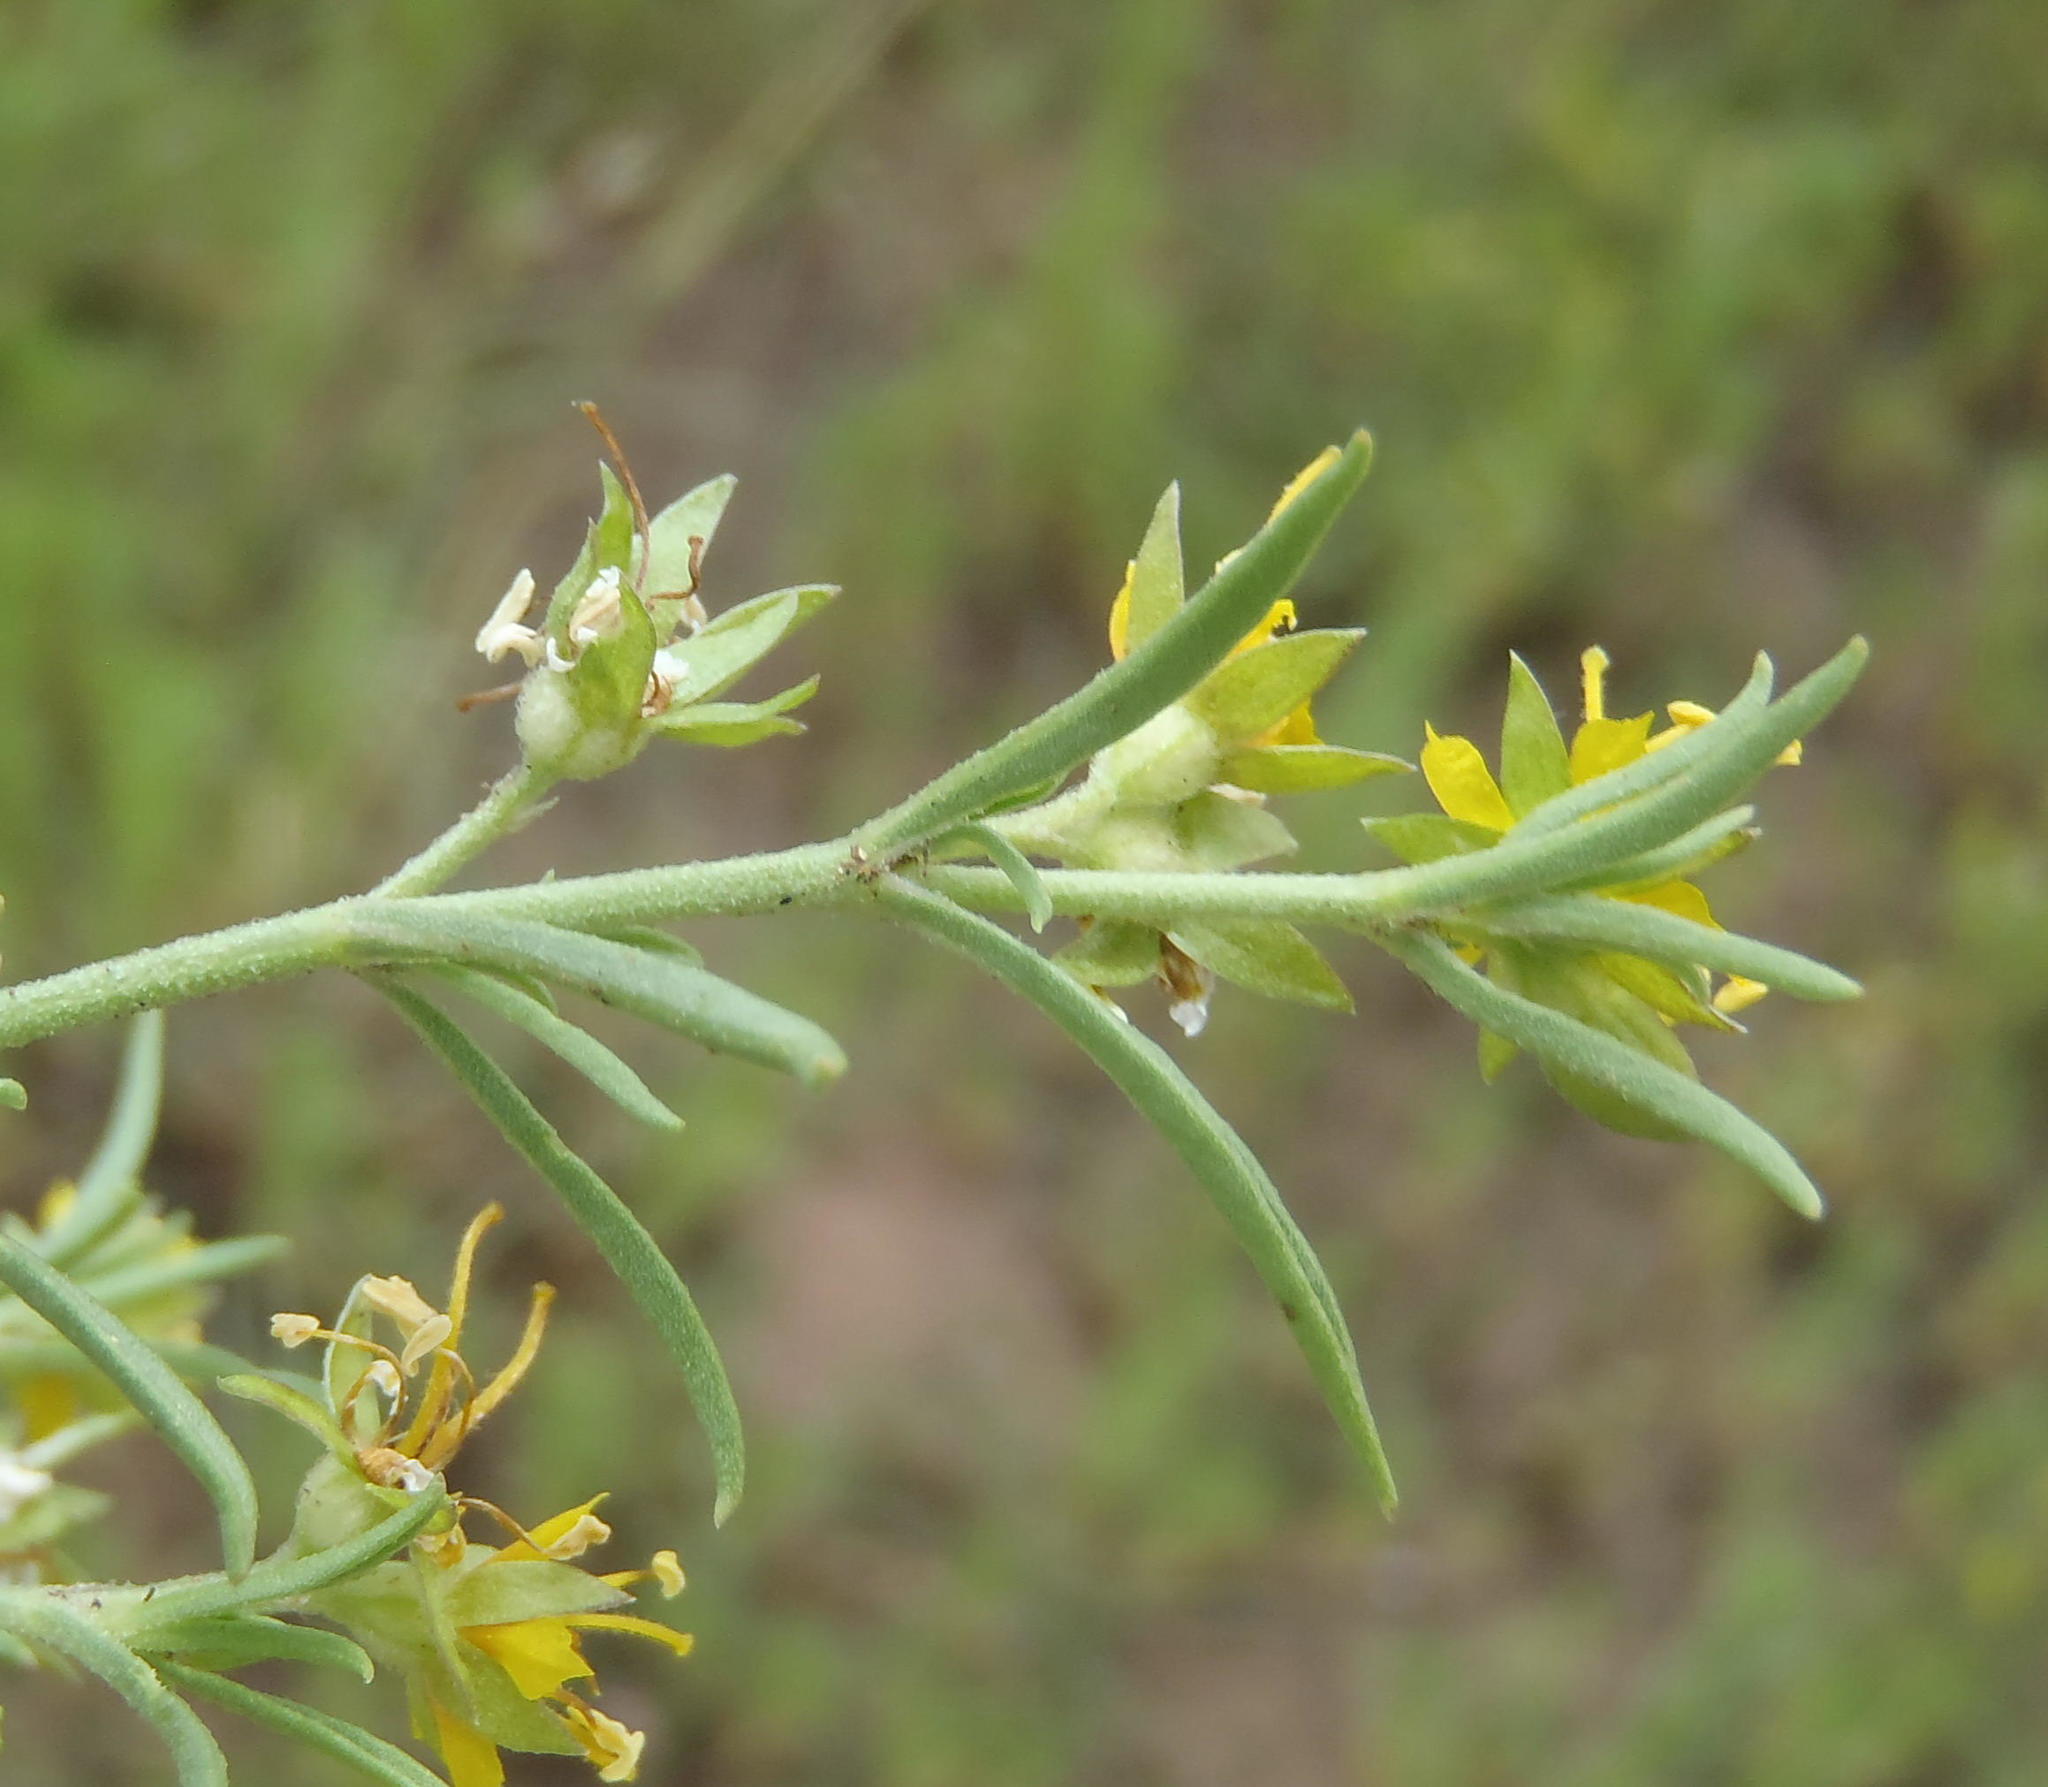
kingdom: Plantae
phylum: Tracheophyta
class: Magnoliopsida
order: Vahliales
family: Vahliaceae
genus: Vahlia
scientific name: Vahlia capensis
